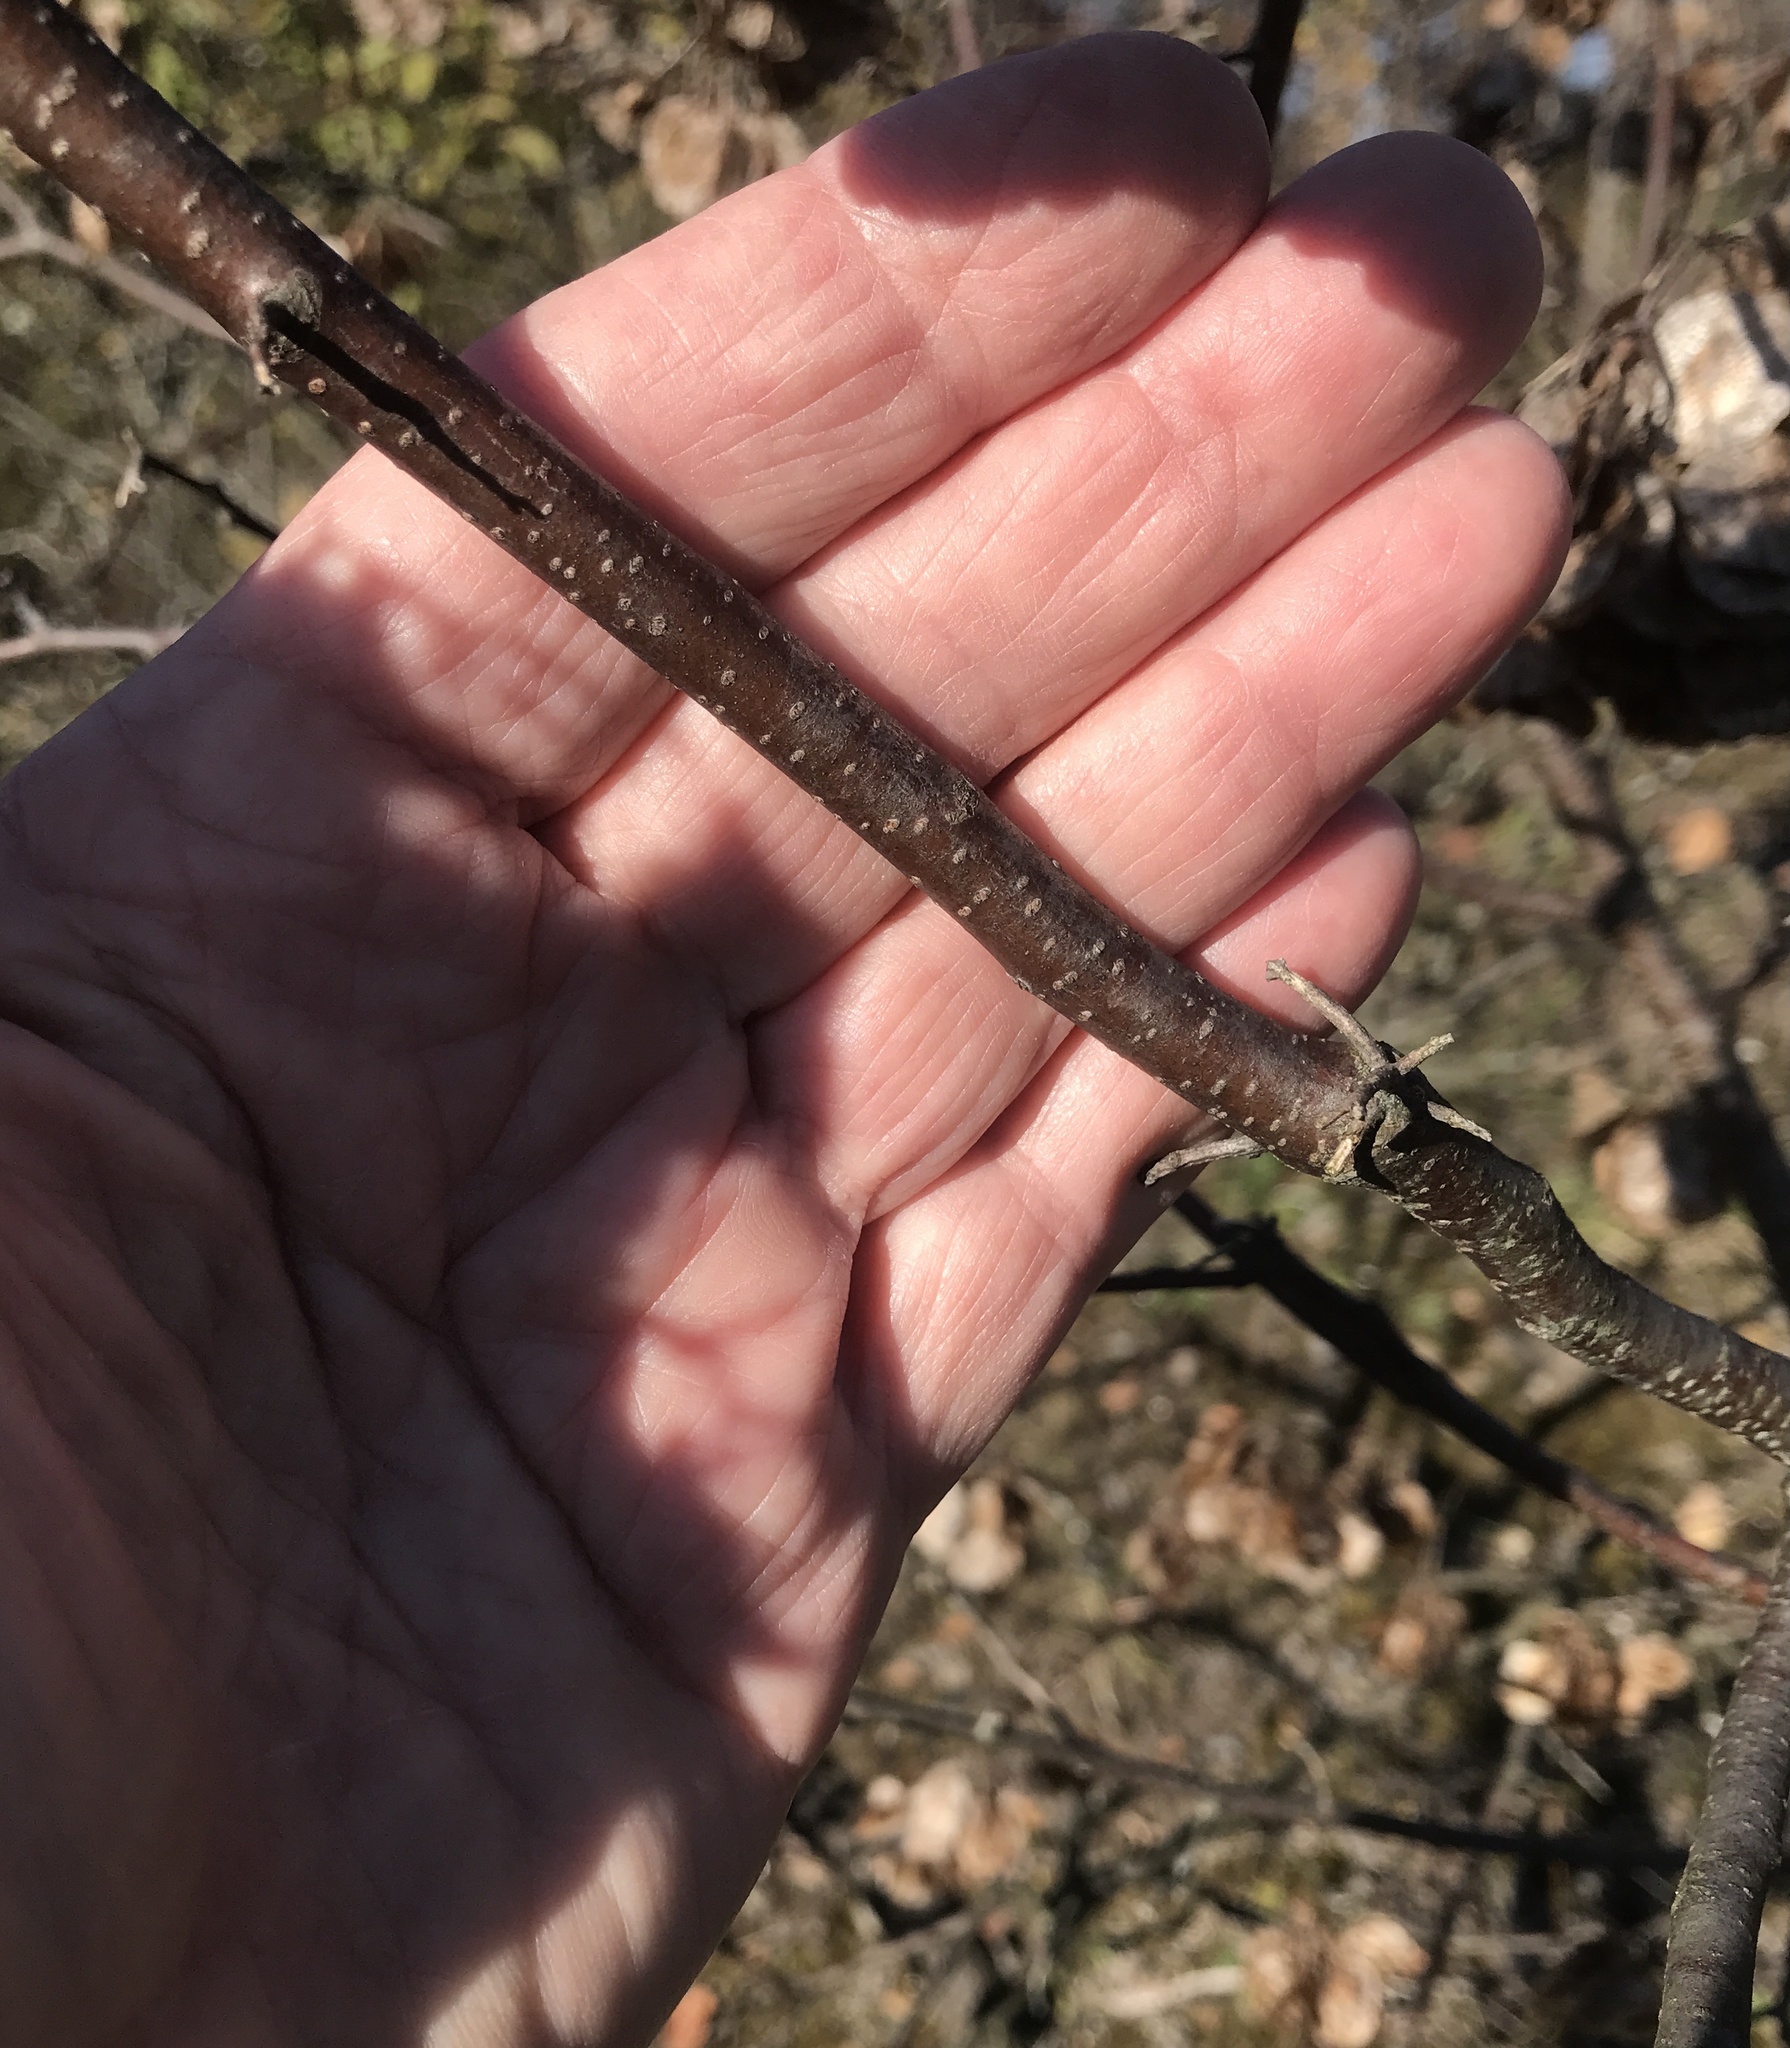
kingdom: Plantae
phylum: Tracheophyta
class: Magnoliopsida
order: Sapindales
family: Rutaceae
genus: Ptelea
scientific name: Ptelea trifoliata
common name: Common hop-tree
